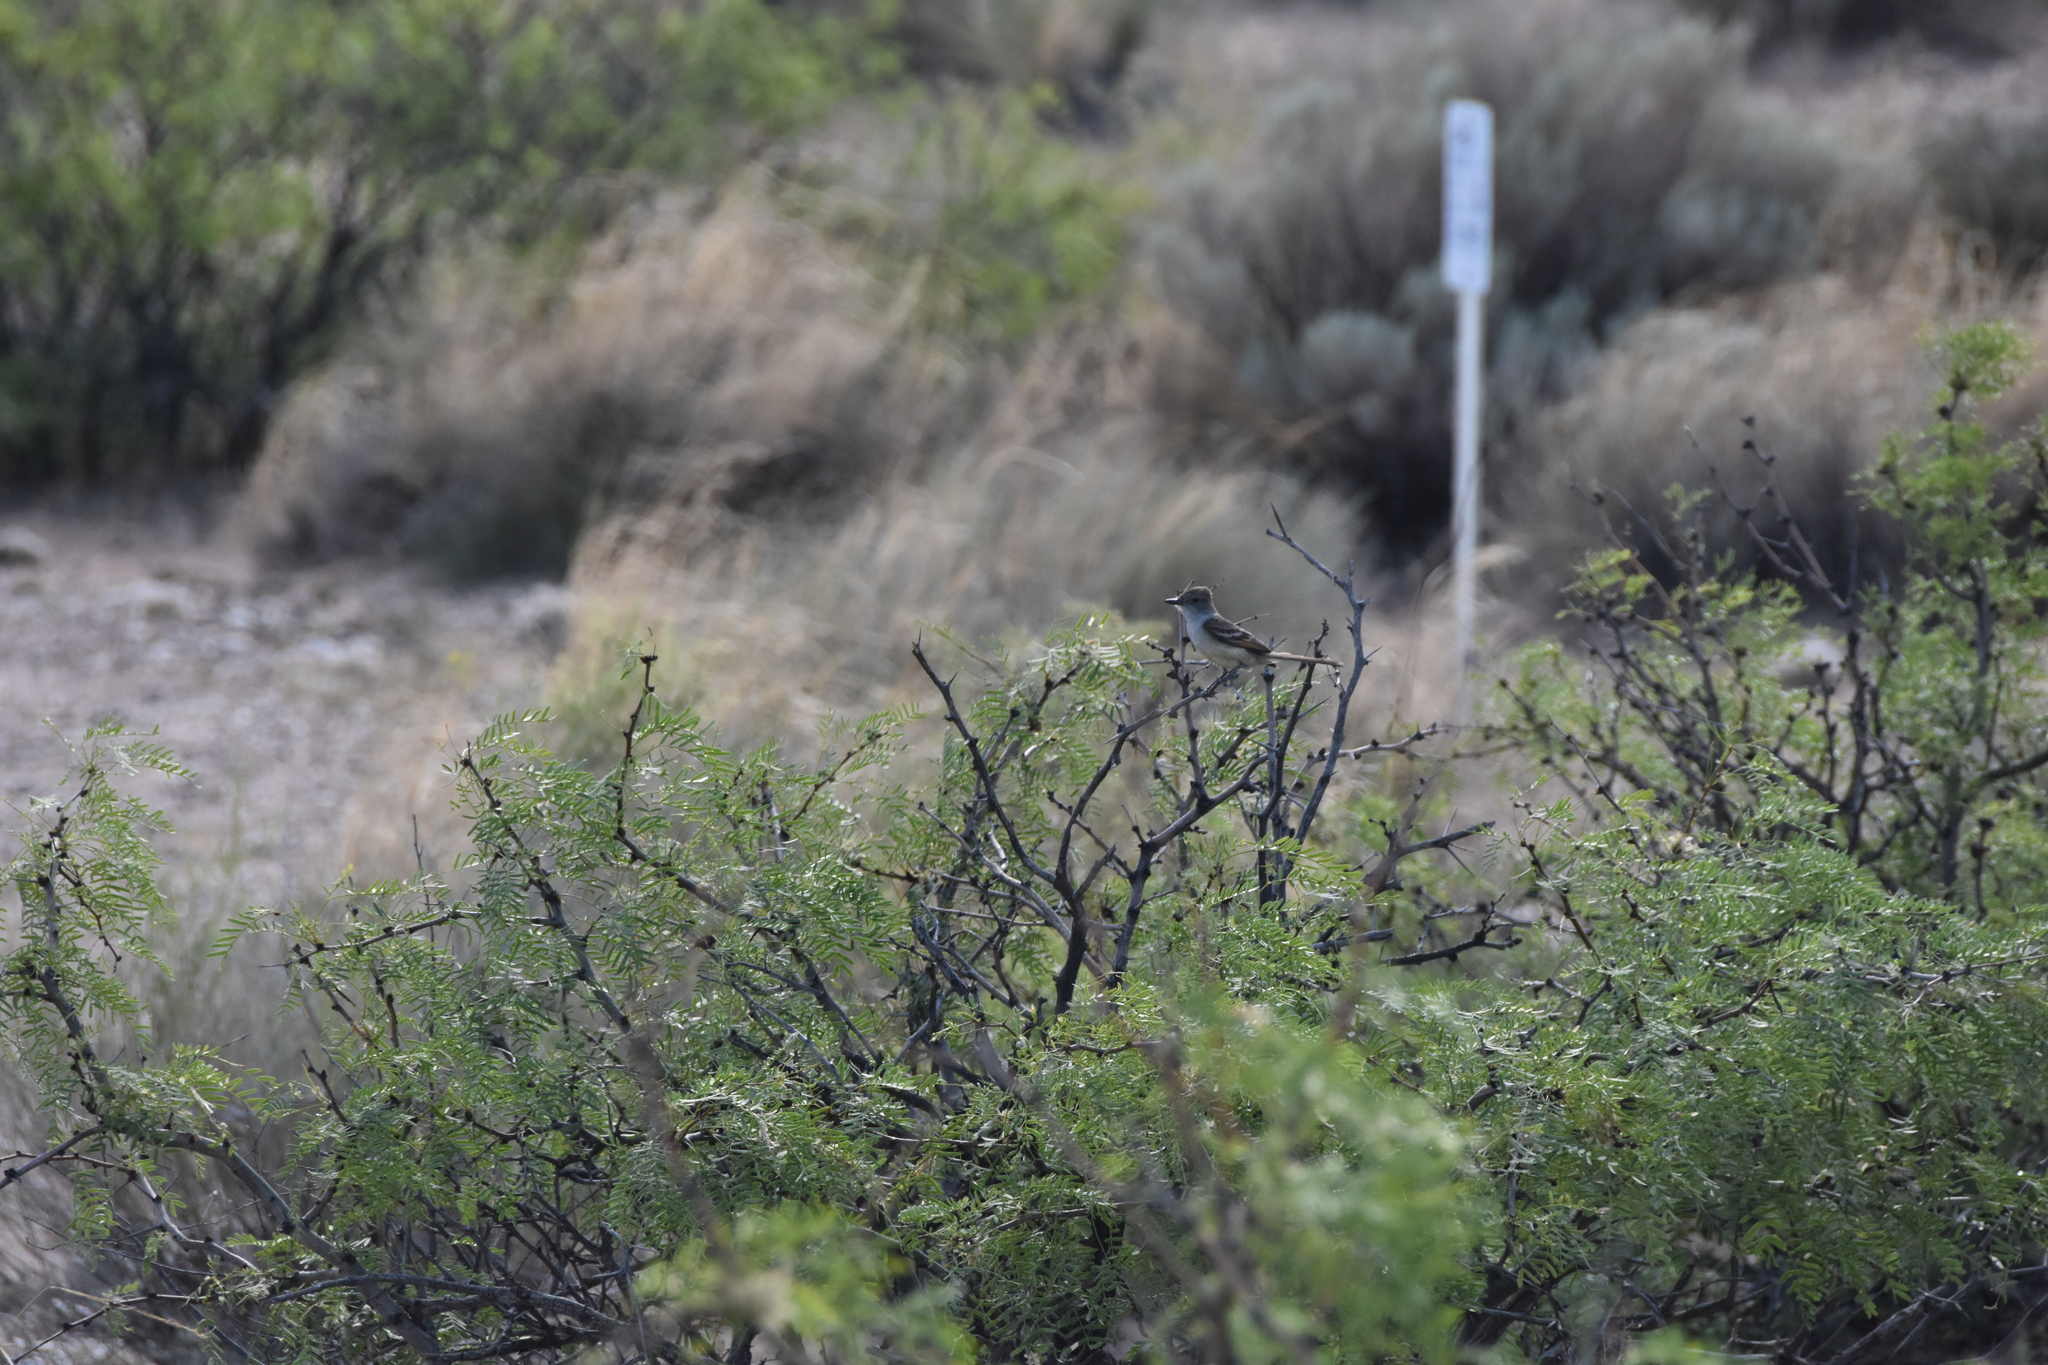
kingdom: Animalia
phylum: Chordata
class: Aves
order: Passeriformes
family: Tyrannidae
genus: Myiarchus
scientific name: Myiarchus cinerascens
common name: Ash-throated flycatcher
